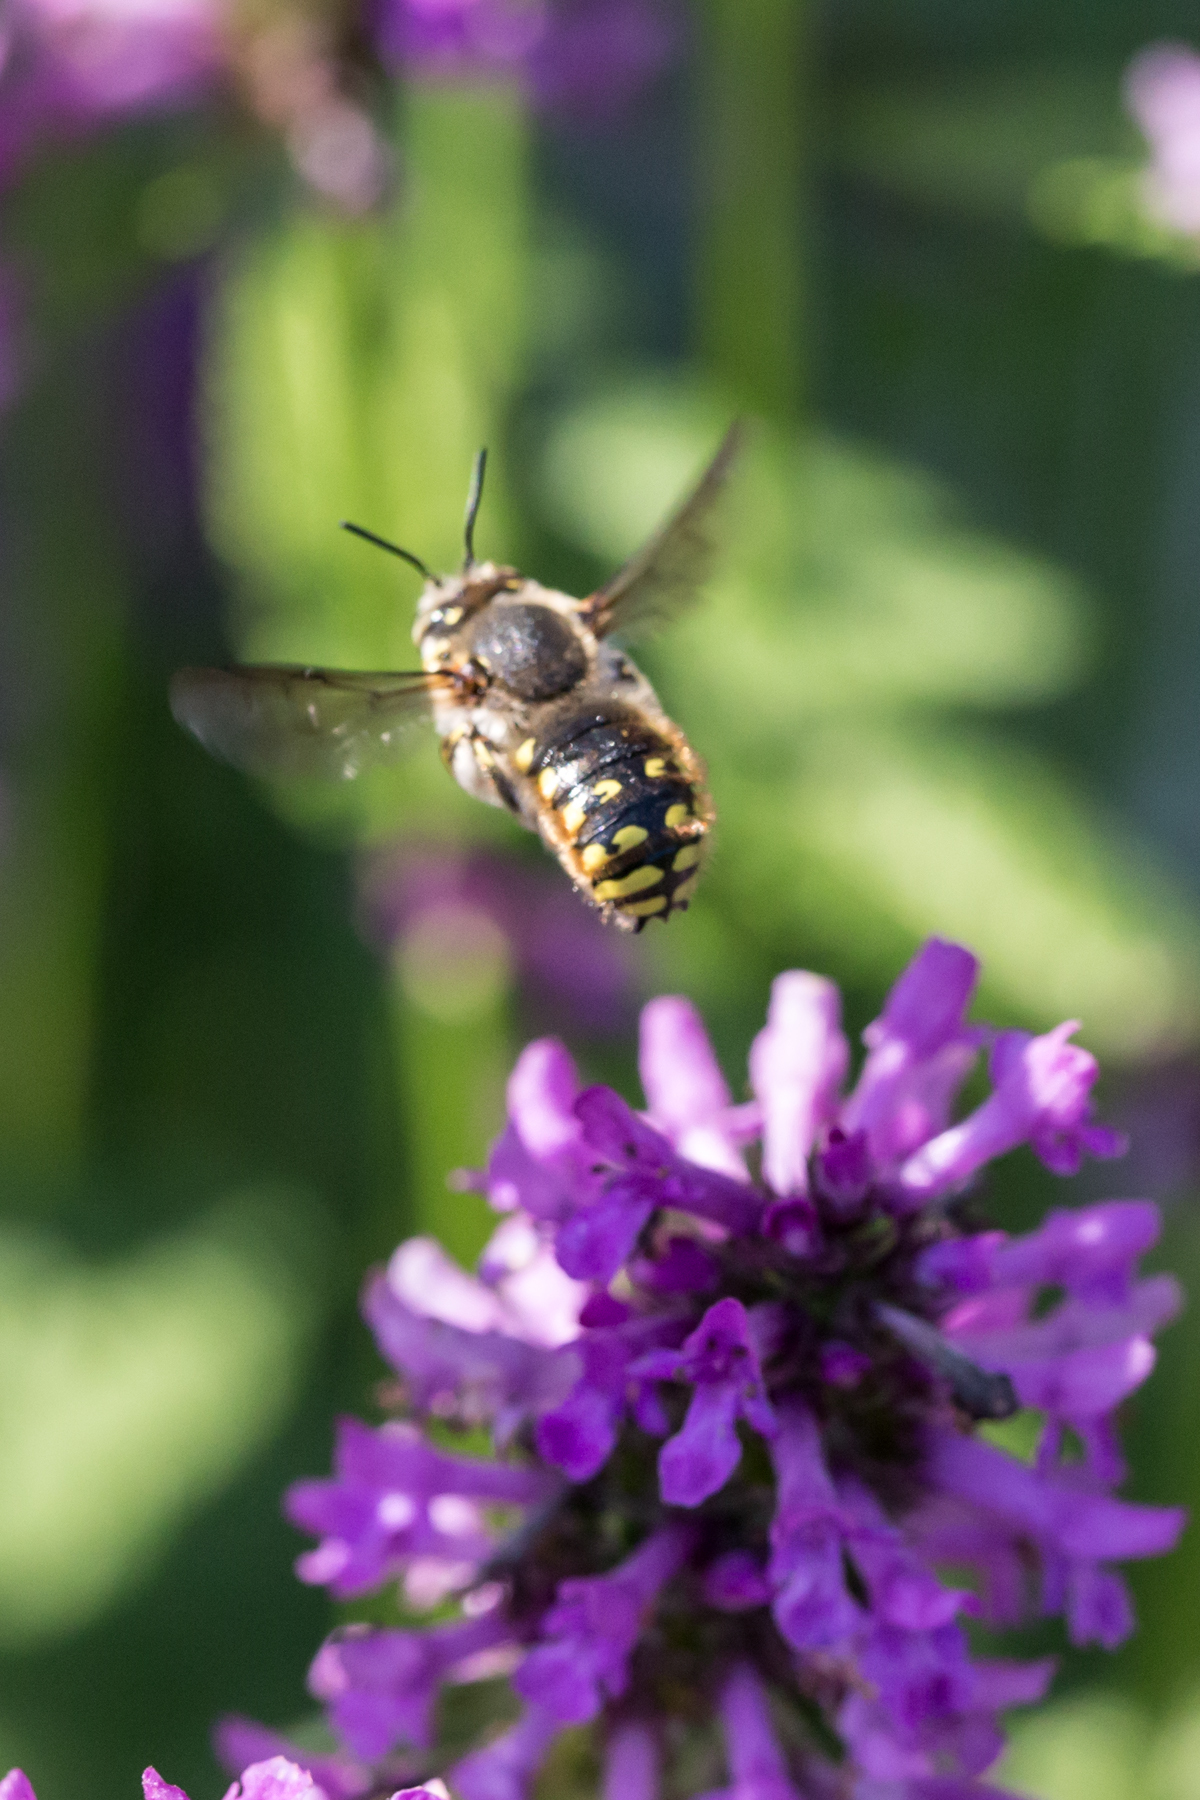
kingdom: Animalia
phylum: Arthropoda
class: Insecta
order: Hymenoptera
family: Megachilidae
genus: Anthidium
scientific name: Anthidium manicatum
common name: Wool carder bee
